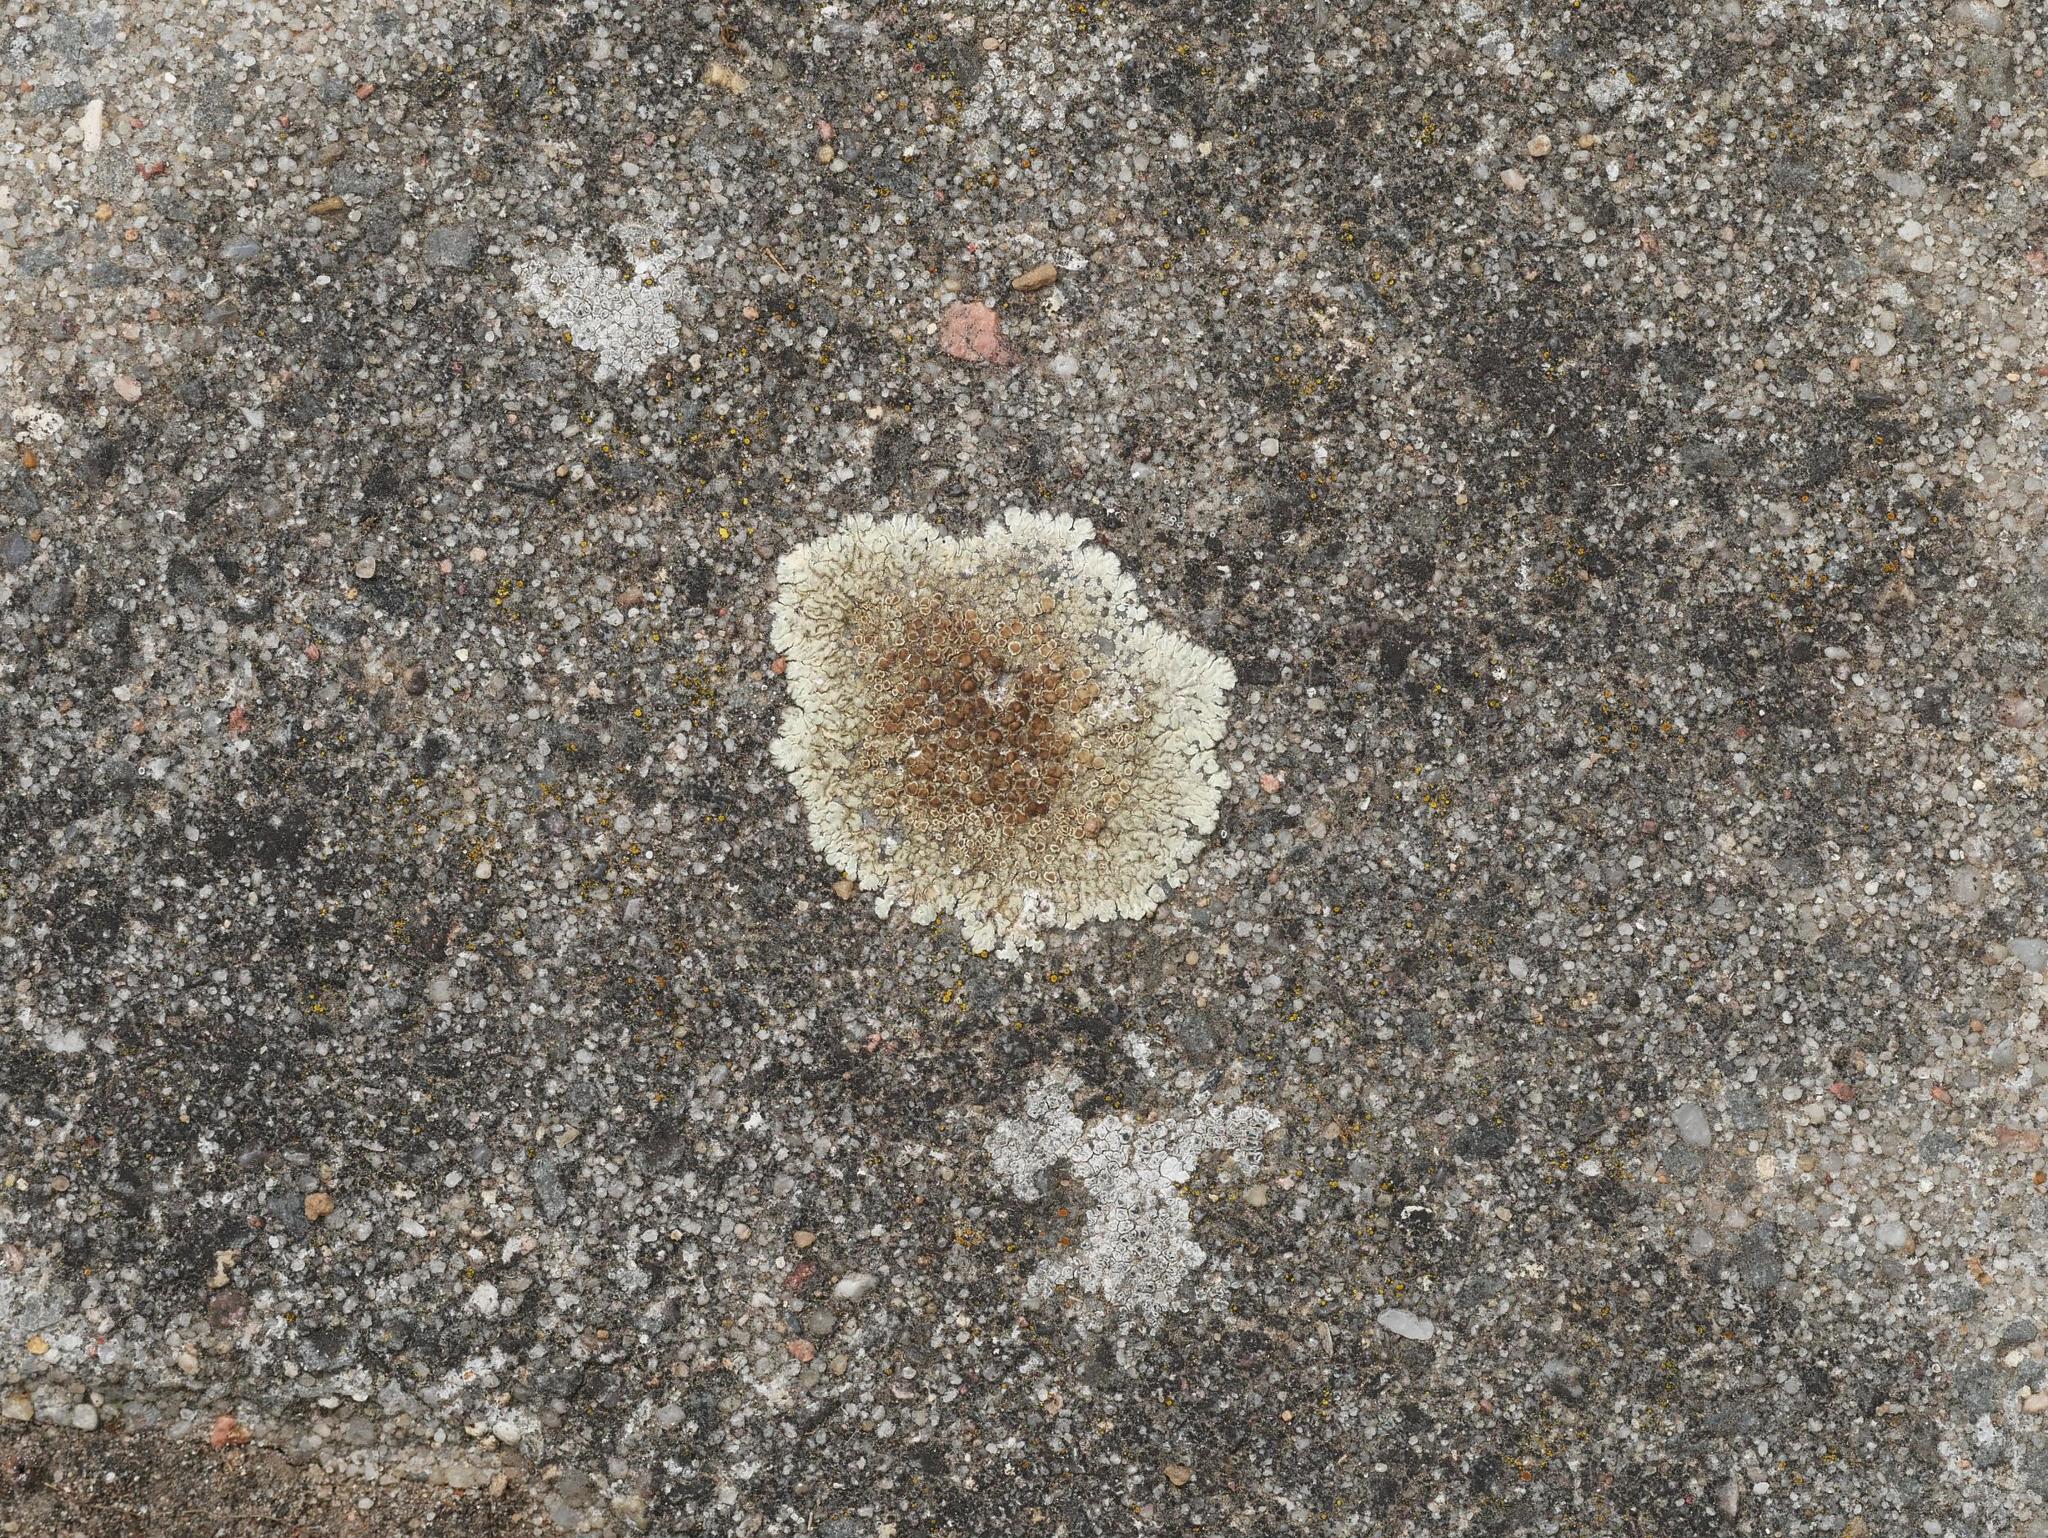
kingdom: Fungi
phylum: Ascomycota
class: Lecanoromycetes
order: Lecanorales
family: Lecanoraceae
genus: Protoparmeliopsis
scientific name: Protoparmeliopsis muralis
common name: Stonewall rim lichen
